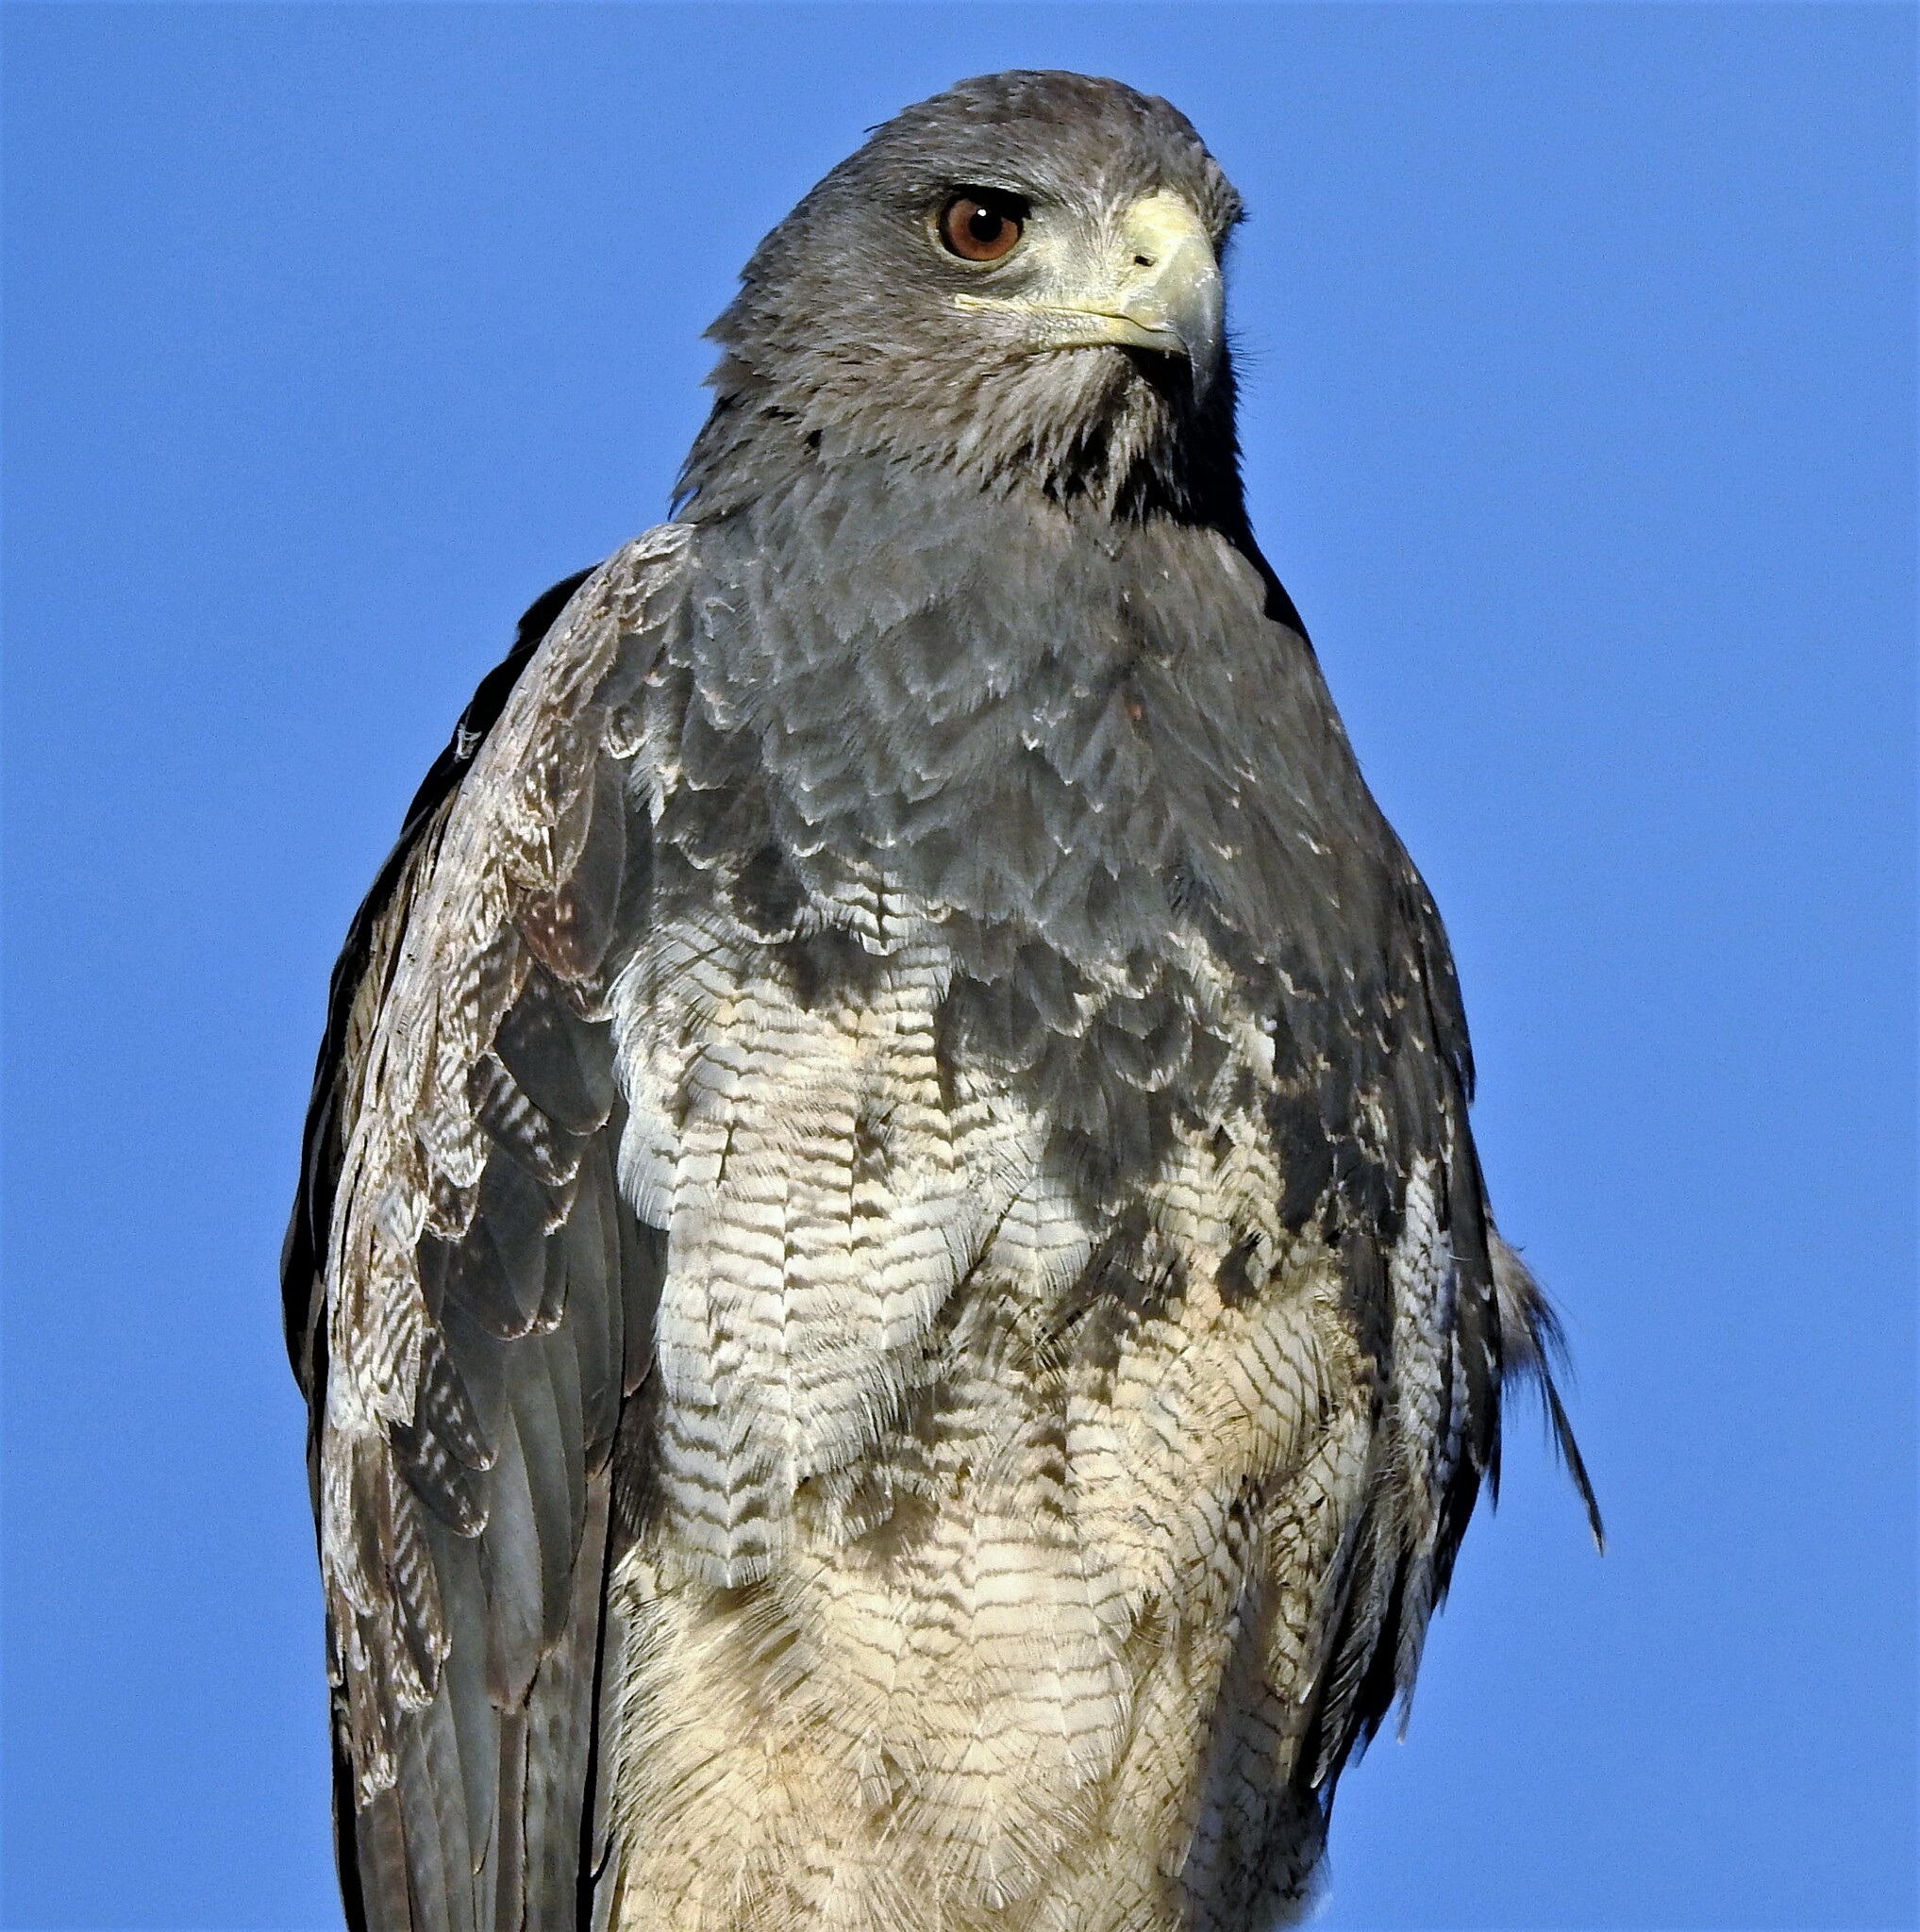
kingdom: Animalia
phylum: Chordata
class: Aves
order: Accipitriformes
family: Accipitridae
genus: Geranoaetus
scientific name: Geranoaetus melanoleucus
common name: Black-chested buzzard-eagle
